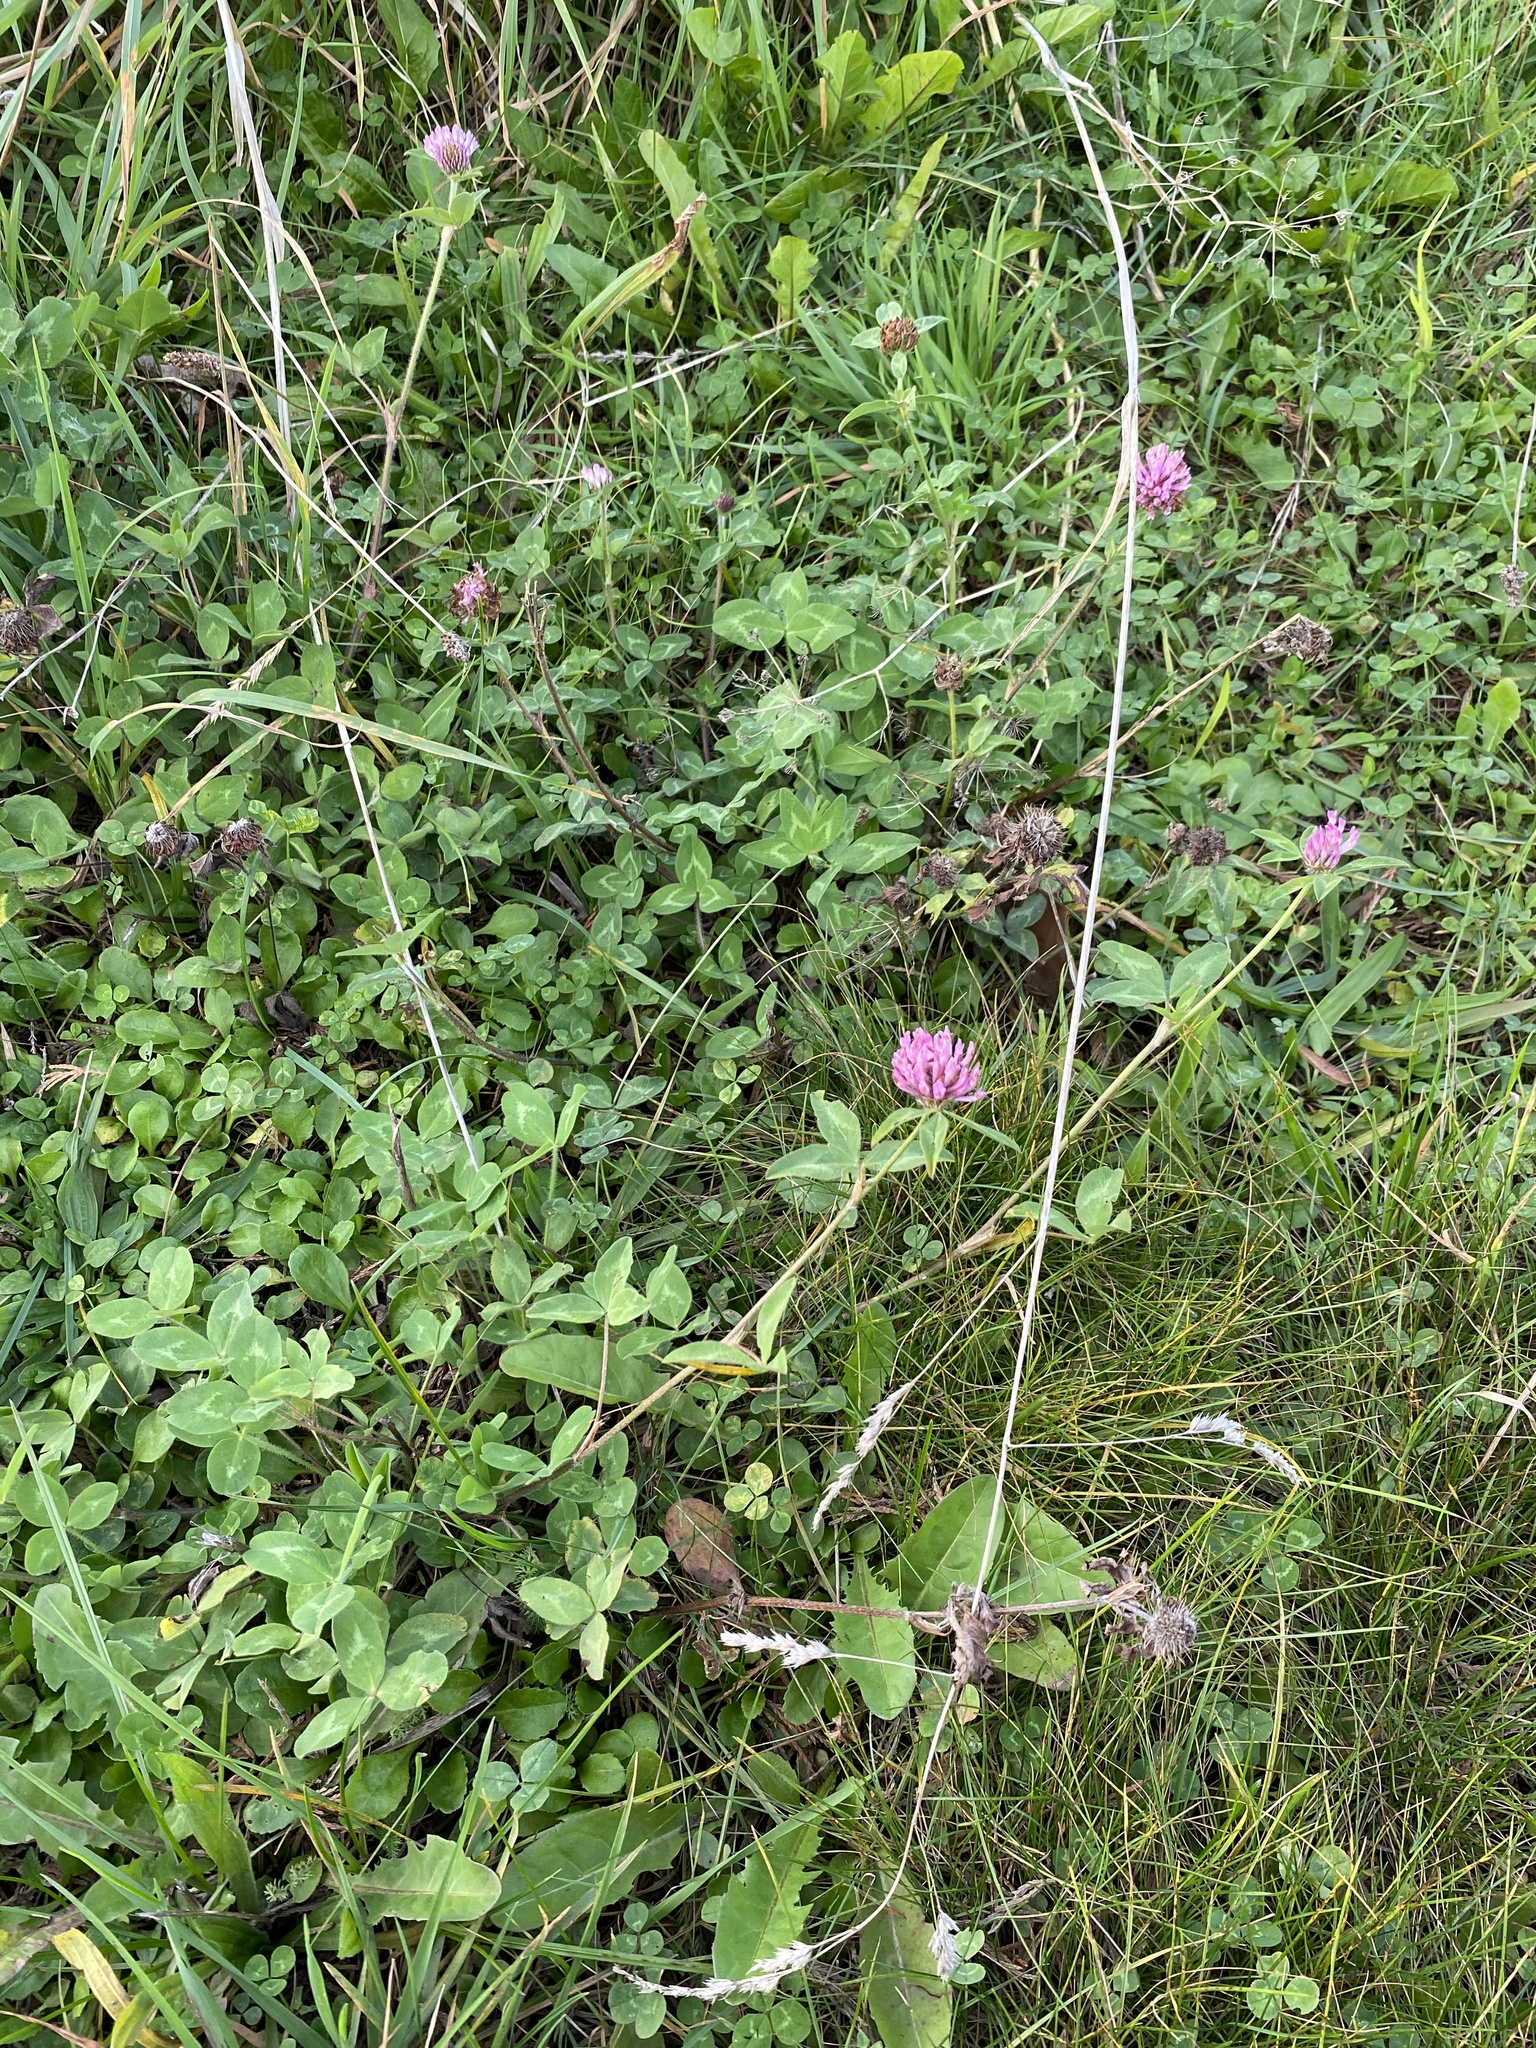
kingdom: Plantae
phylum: Tracheophyta
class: Magnoliopsida
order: Fabales
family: Fabaceae
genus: Trifolium
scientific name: Trifolium pratense
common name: Red clover
